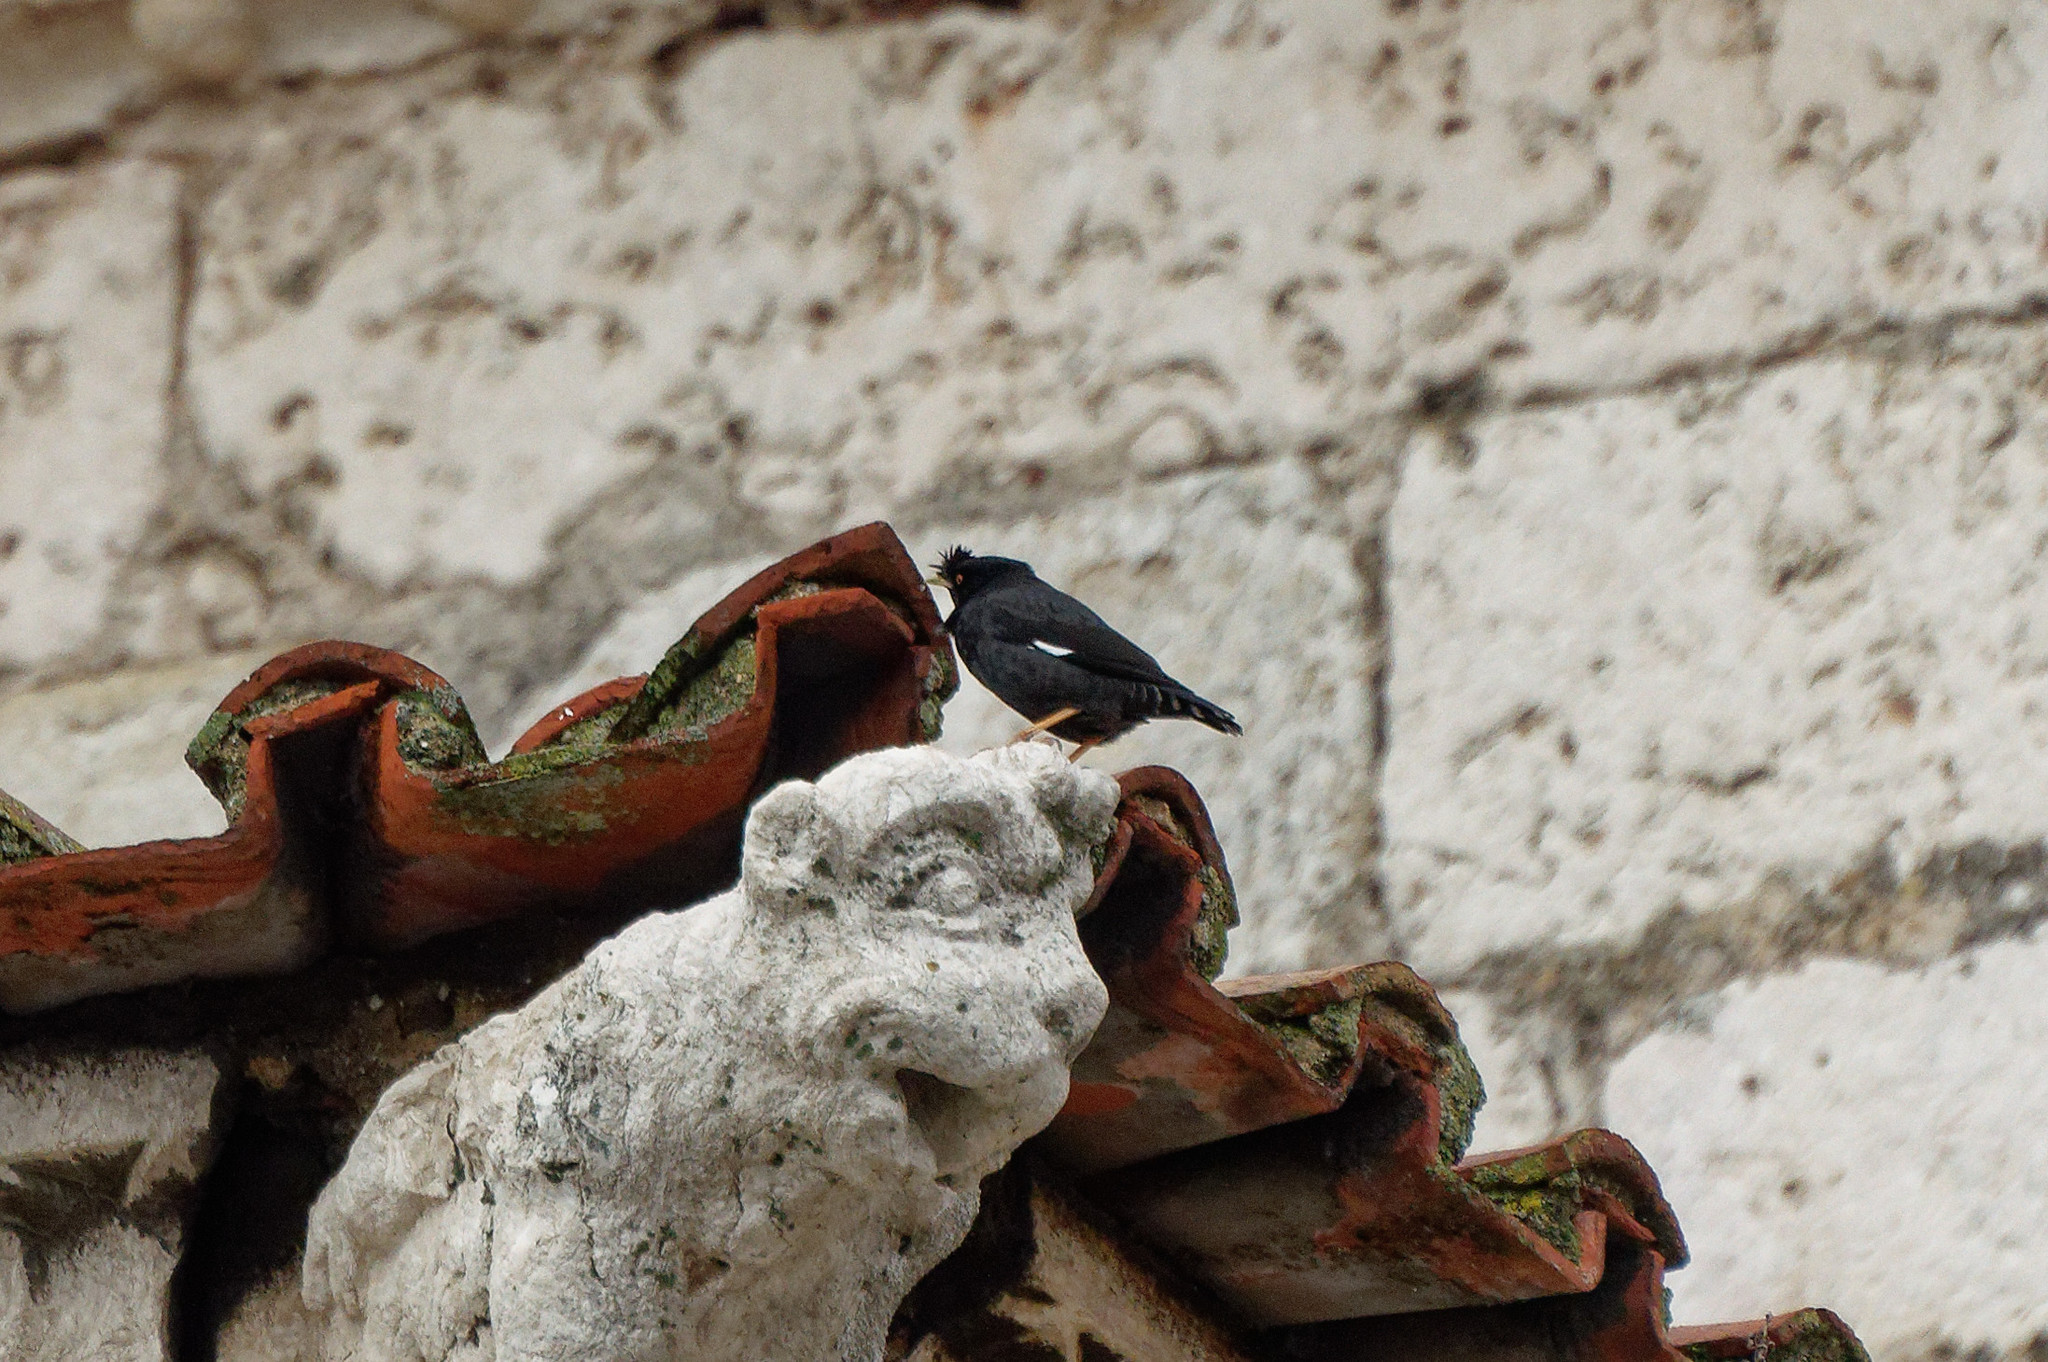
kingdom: Animalia
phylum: Chordata
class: Aves
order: Passeriformes
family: Sturnidae
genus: Acridotheres
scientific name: Acridotheres cristatellus
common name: Crested myna
